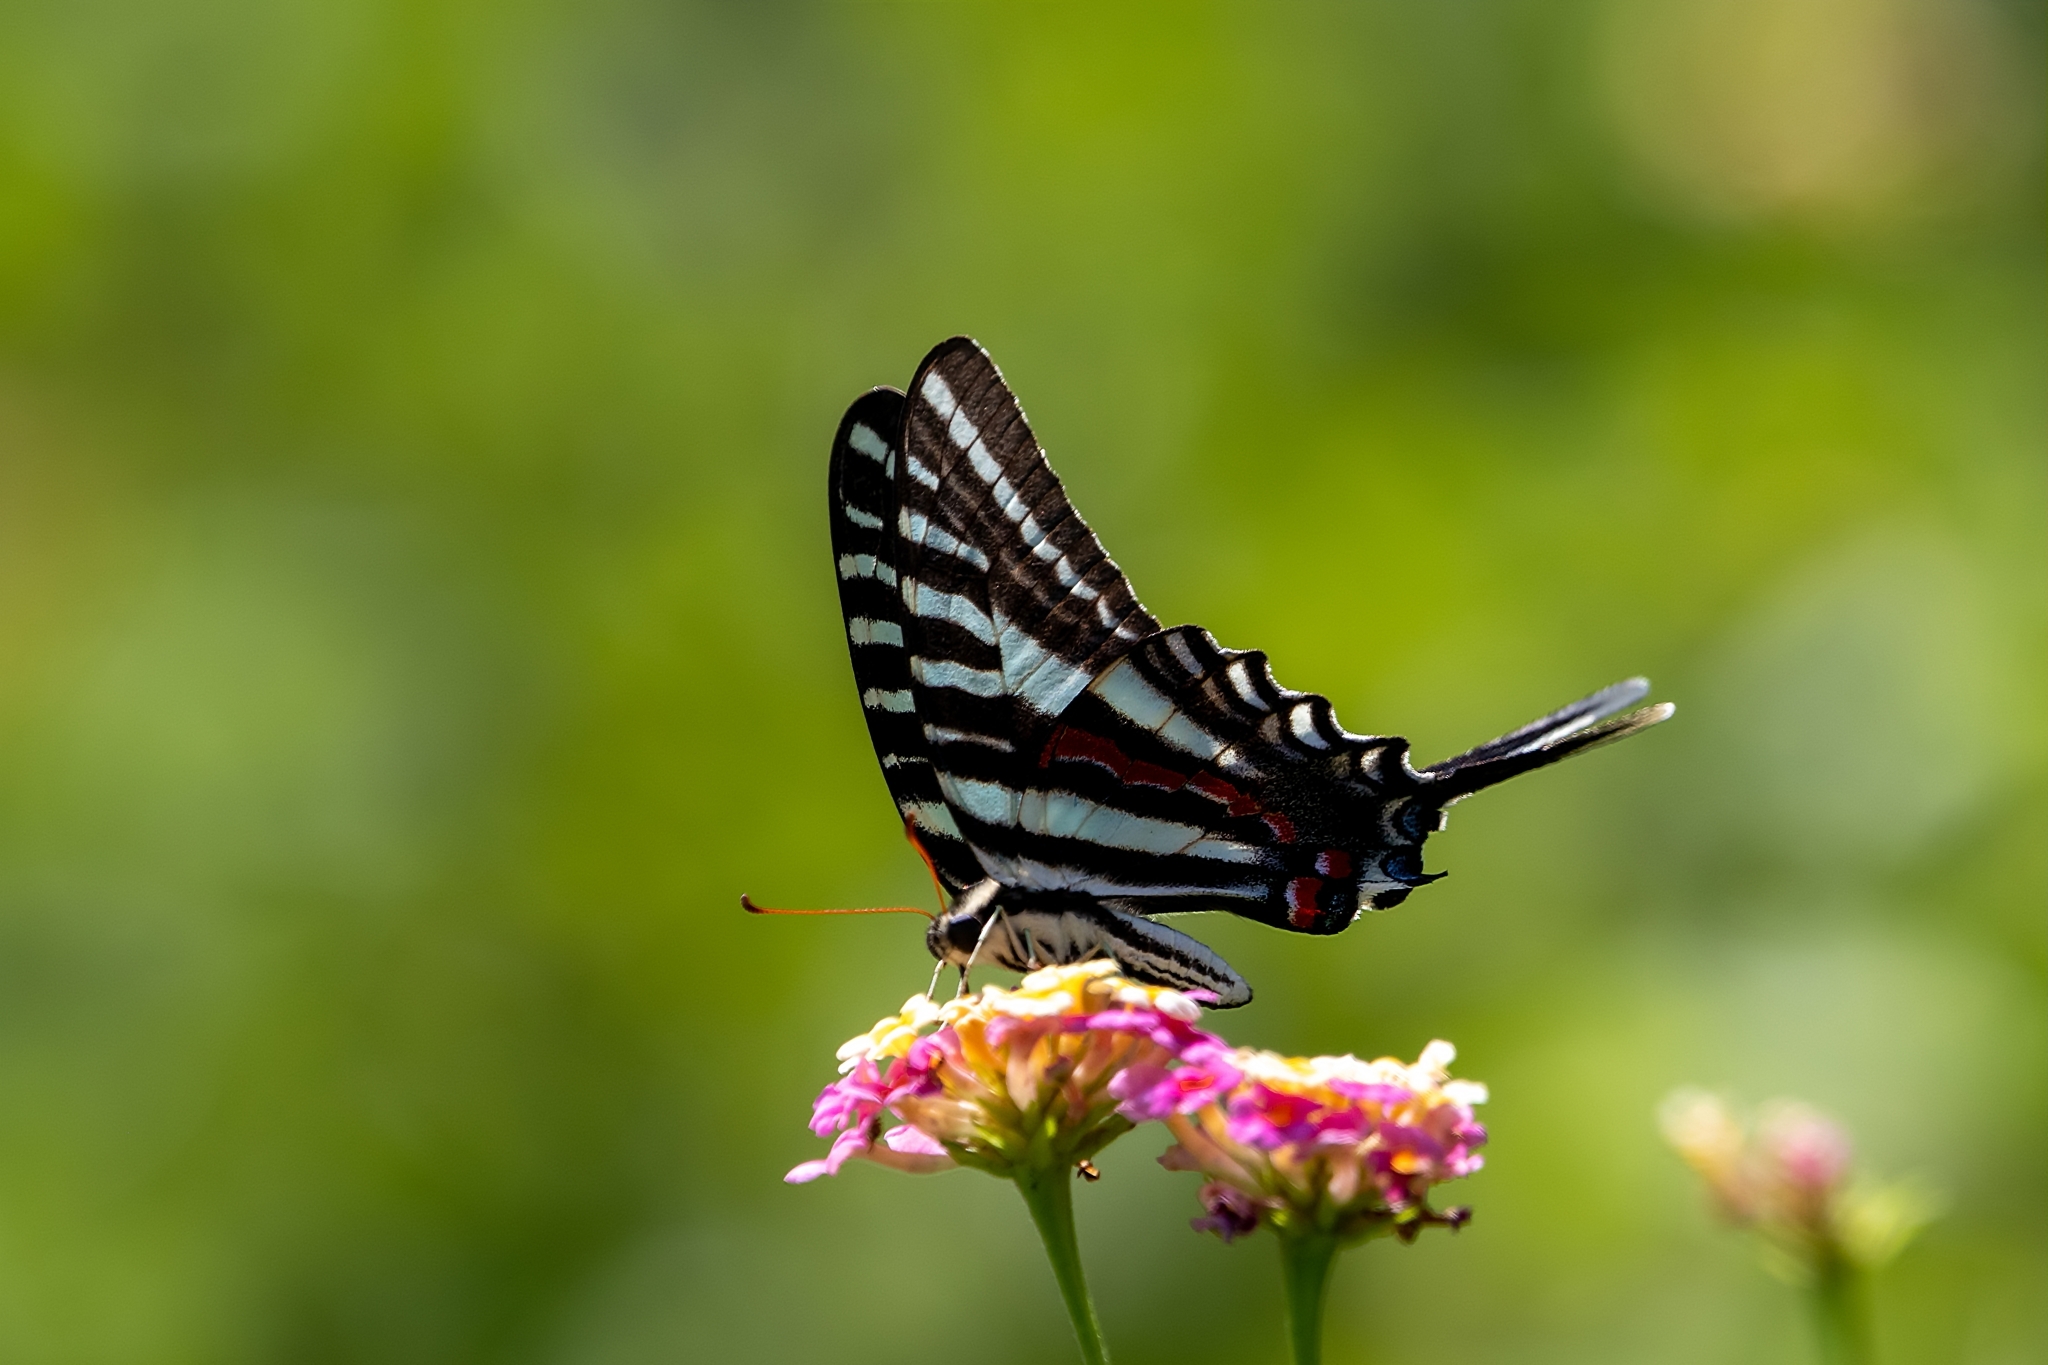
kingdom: Animalia
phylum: Arthropoda
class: Insecta
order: Lepidoptera
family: Papilionidae
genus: Protographium
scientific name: Protographium marcellus
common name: Zebra swallowtail
